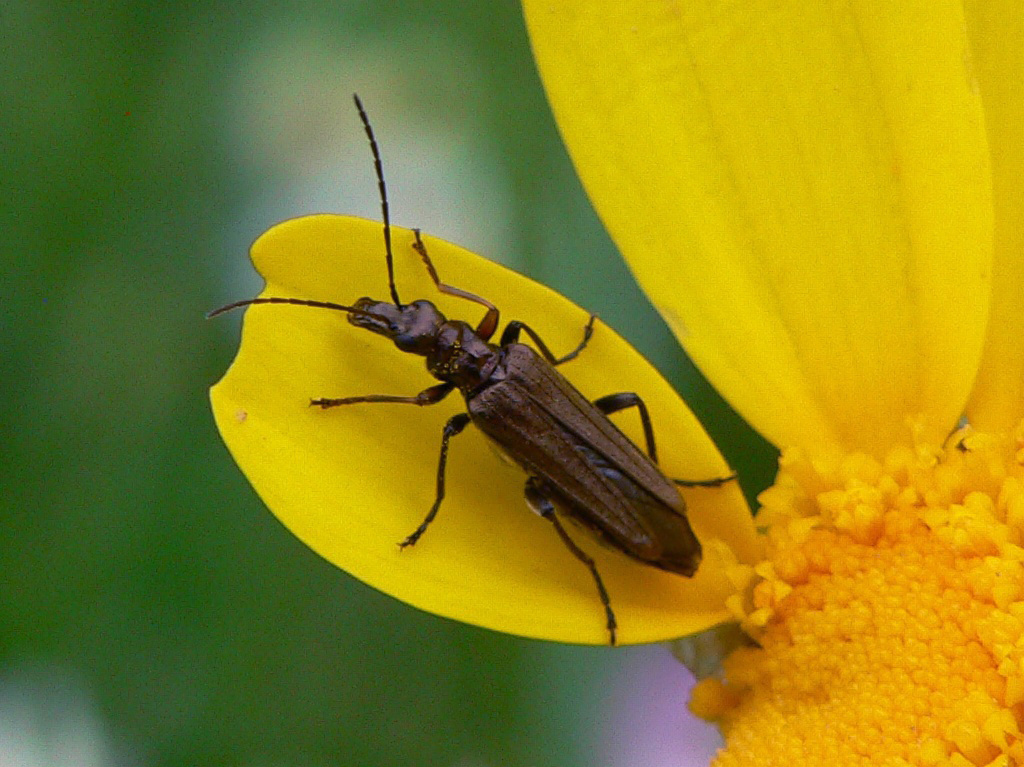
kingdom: Animalia
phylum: Arthropoda
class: Insecta
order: Coleoptera
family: Oedemeridae
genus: Oedemera
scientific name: Oedemera flavipes
